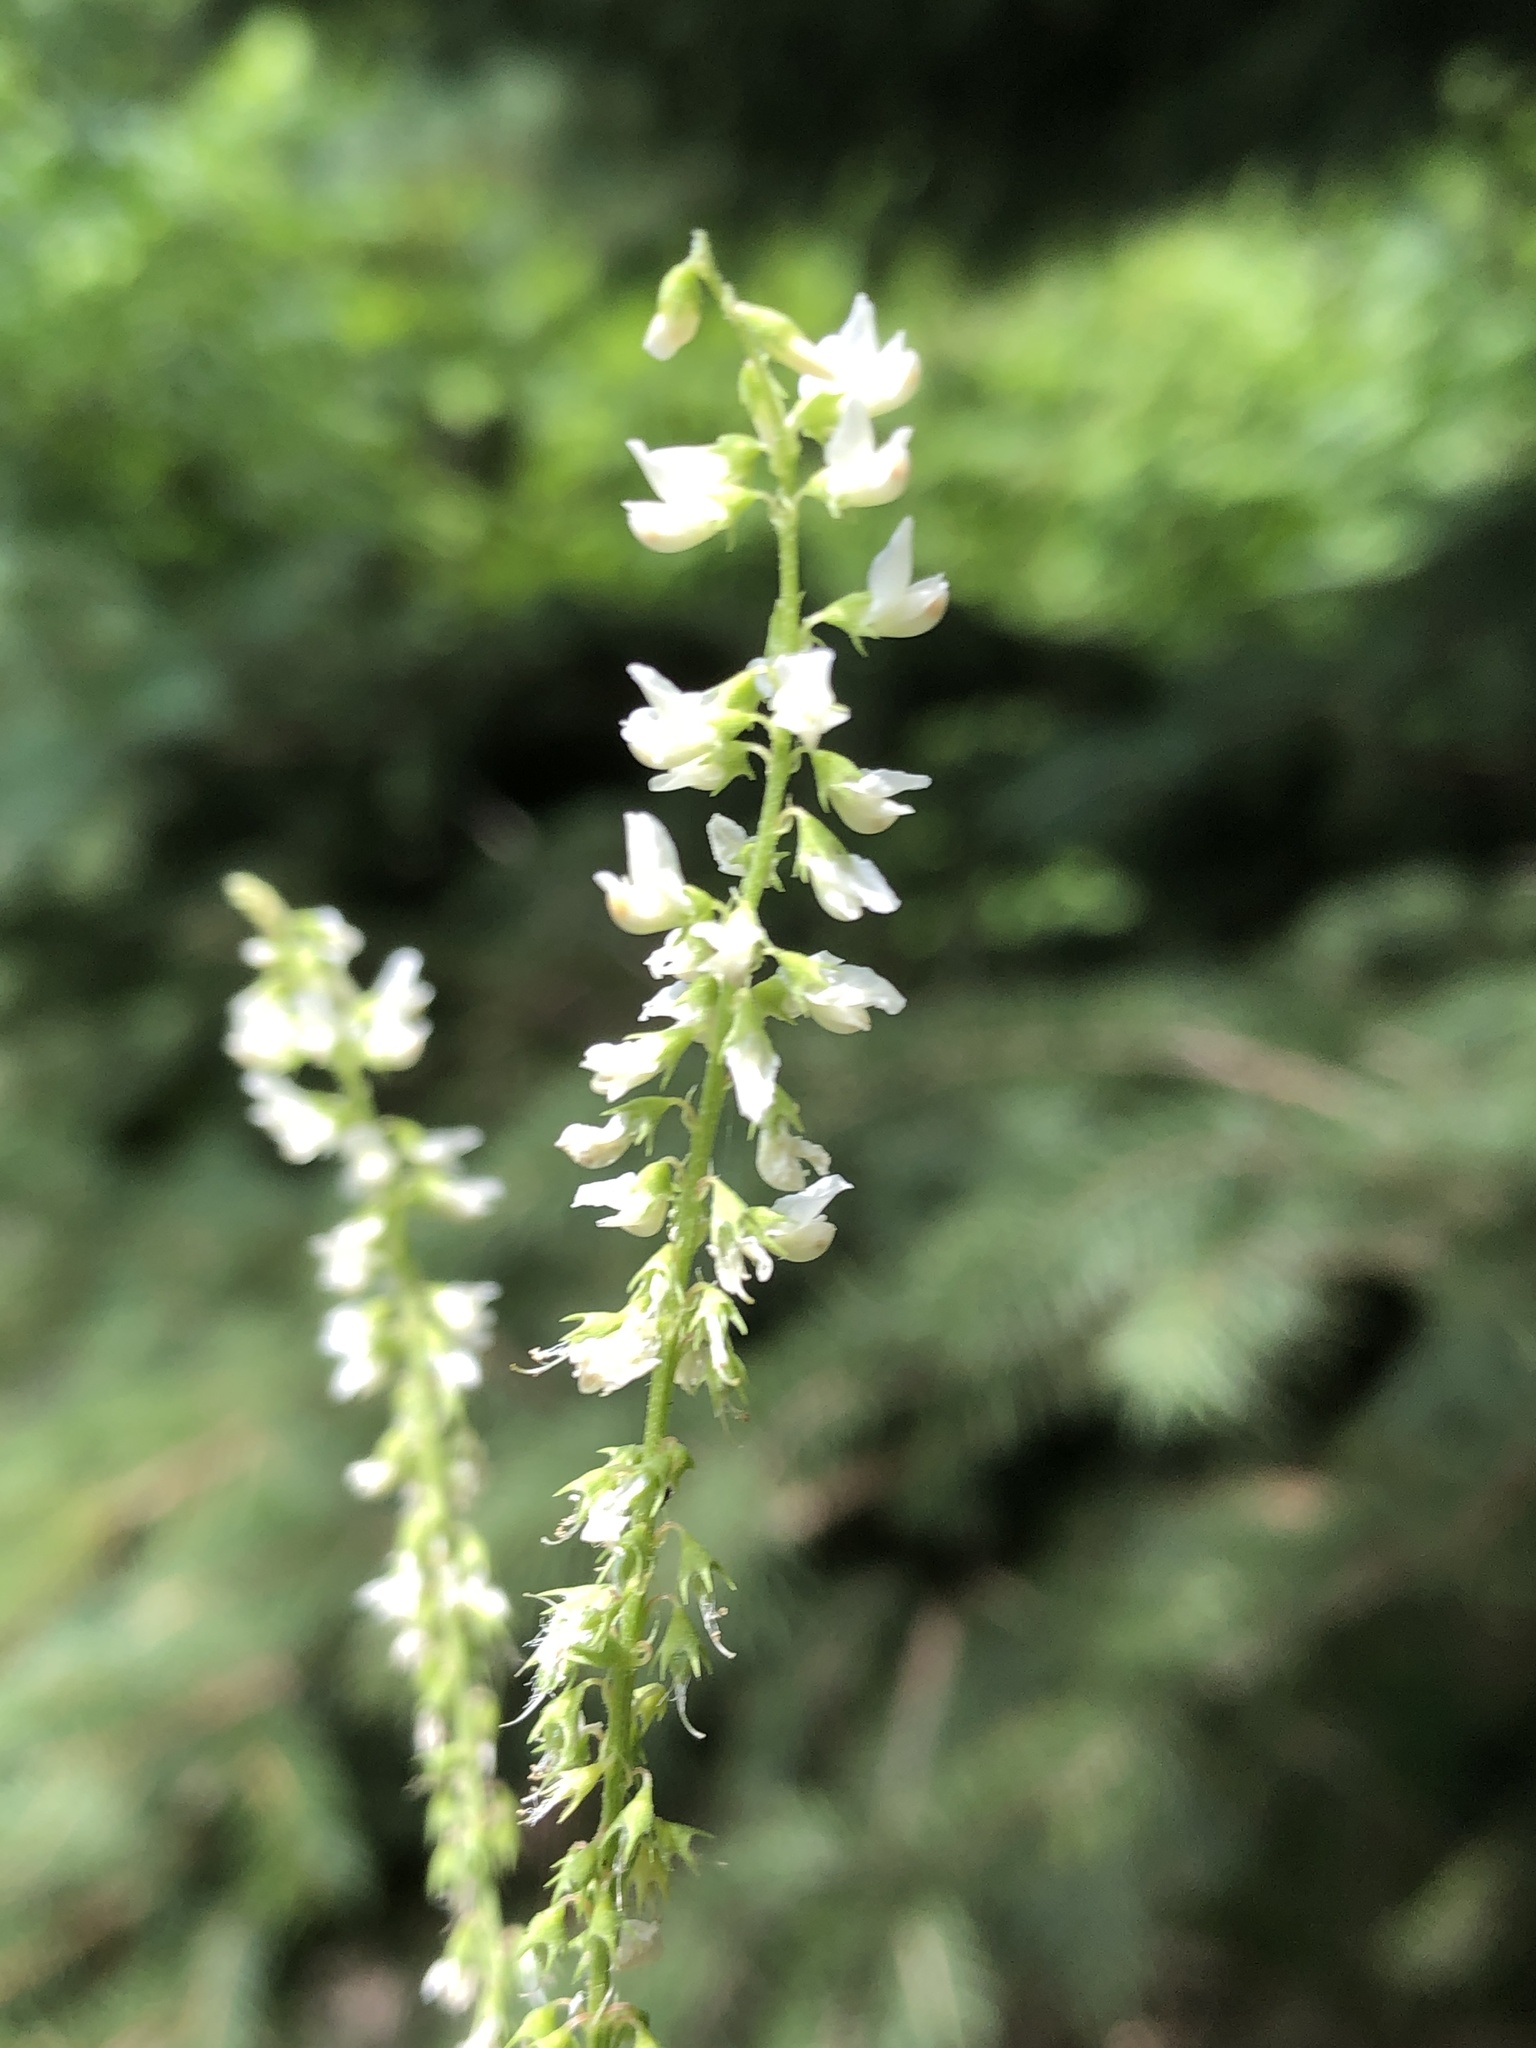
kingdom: Plantae
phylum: Tracheophyta
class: Magnoliopsida
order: Fabales
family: Fabaceae
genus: Melilotus
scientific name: Melilotus albus
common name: White melilot
